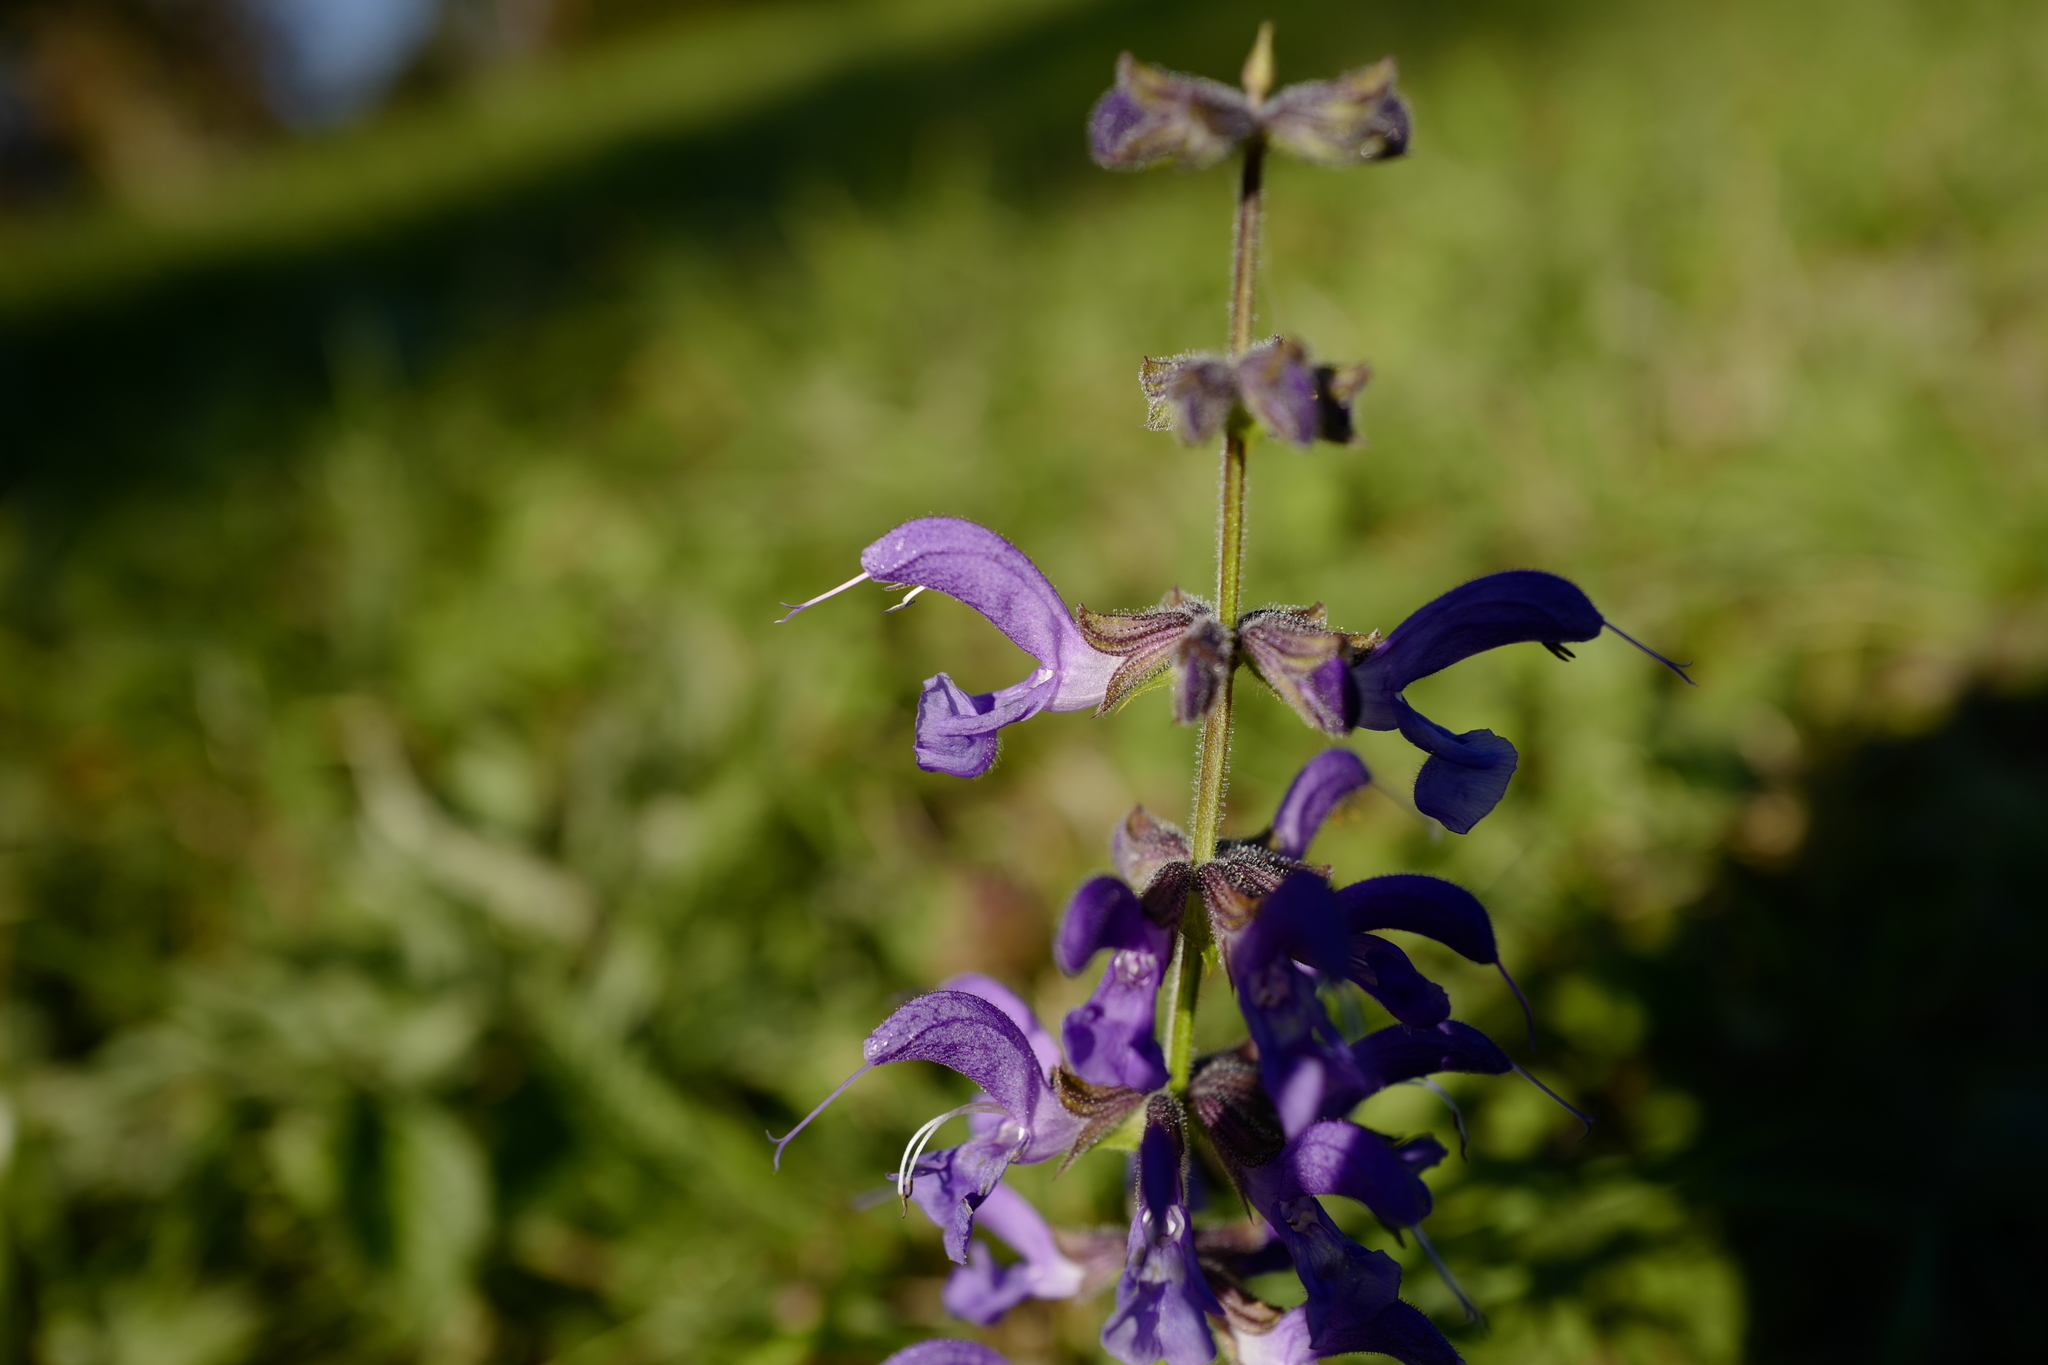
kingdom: Plantae
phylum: Tracheophyta
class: Magnoliopsida
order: Lamiales
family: Lamiaceae
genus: Salvia
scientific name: Salvia pratensis
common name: Meadow sage
